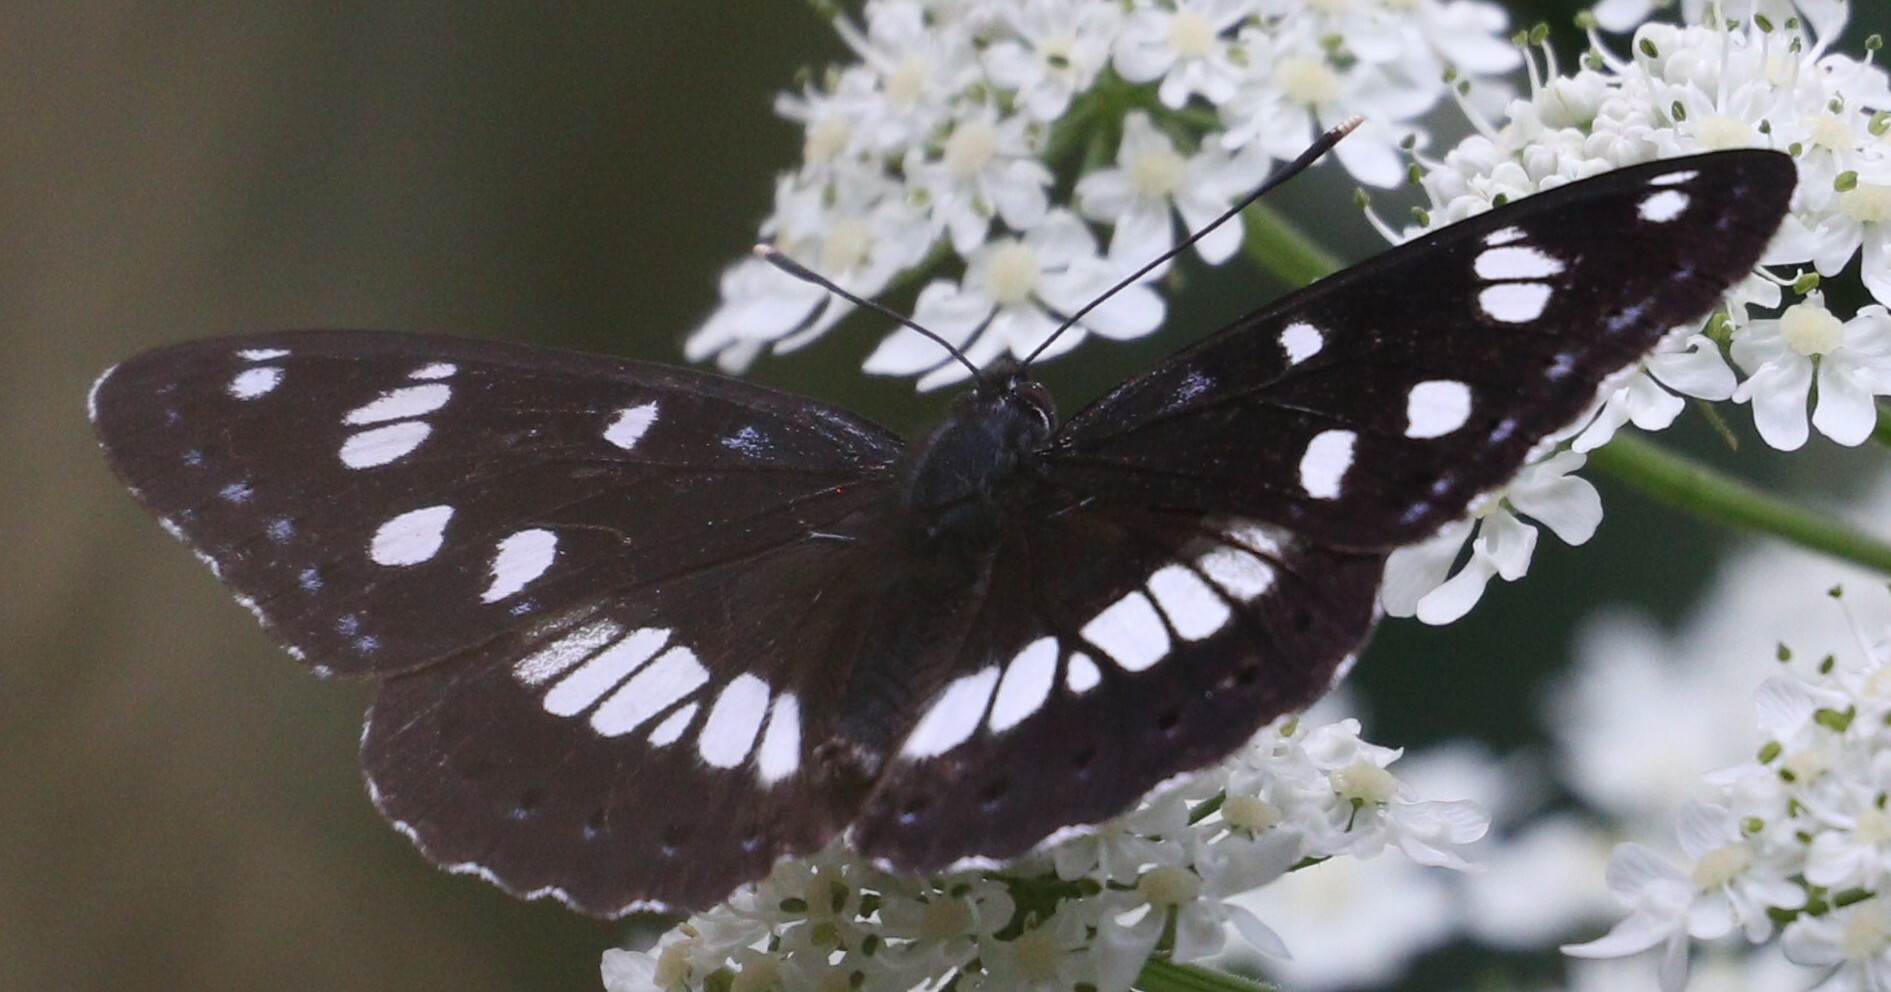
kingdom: Animalia
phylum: Arthropoda
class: Insecta
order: Lepidoptera
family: Nymphalidae
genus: Limenitis
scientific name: Limenitis reducta
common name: Southern white admiral
